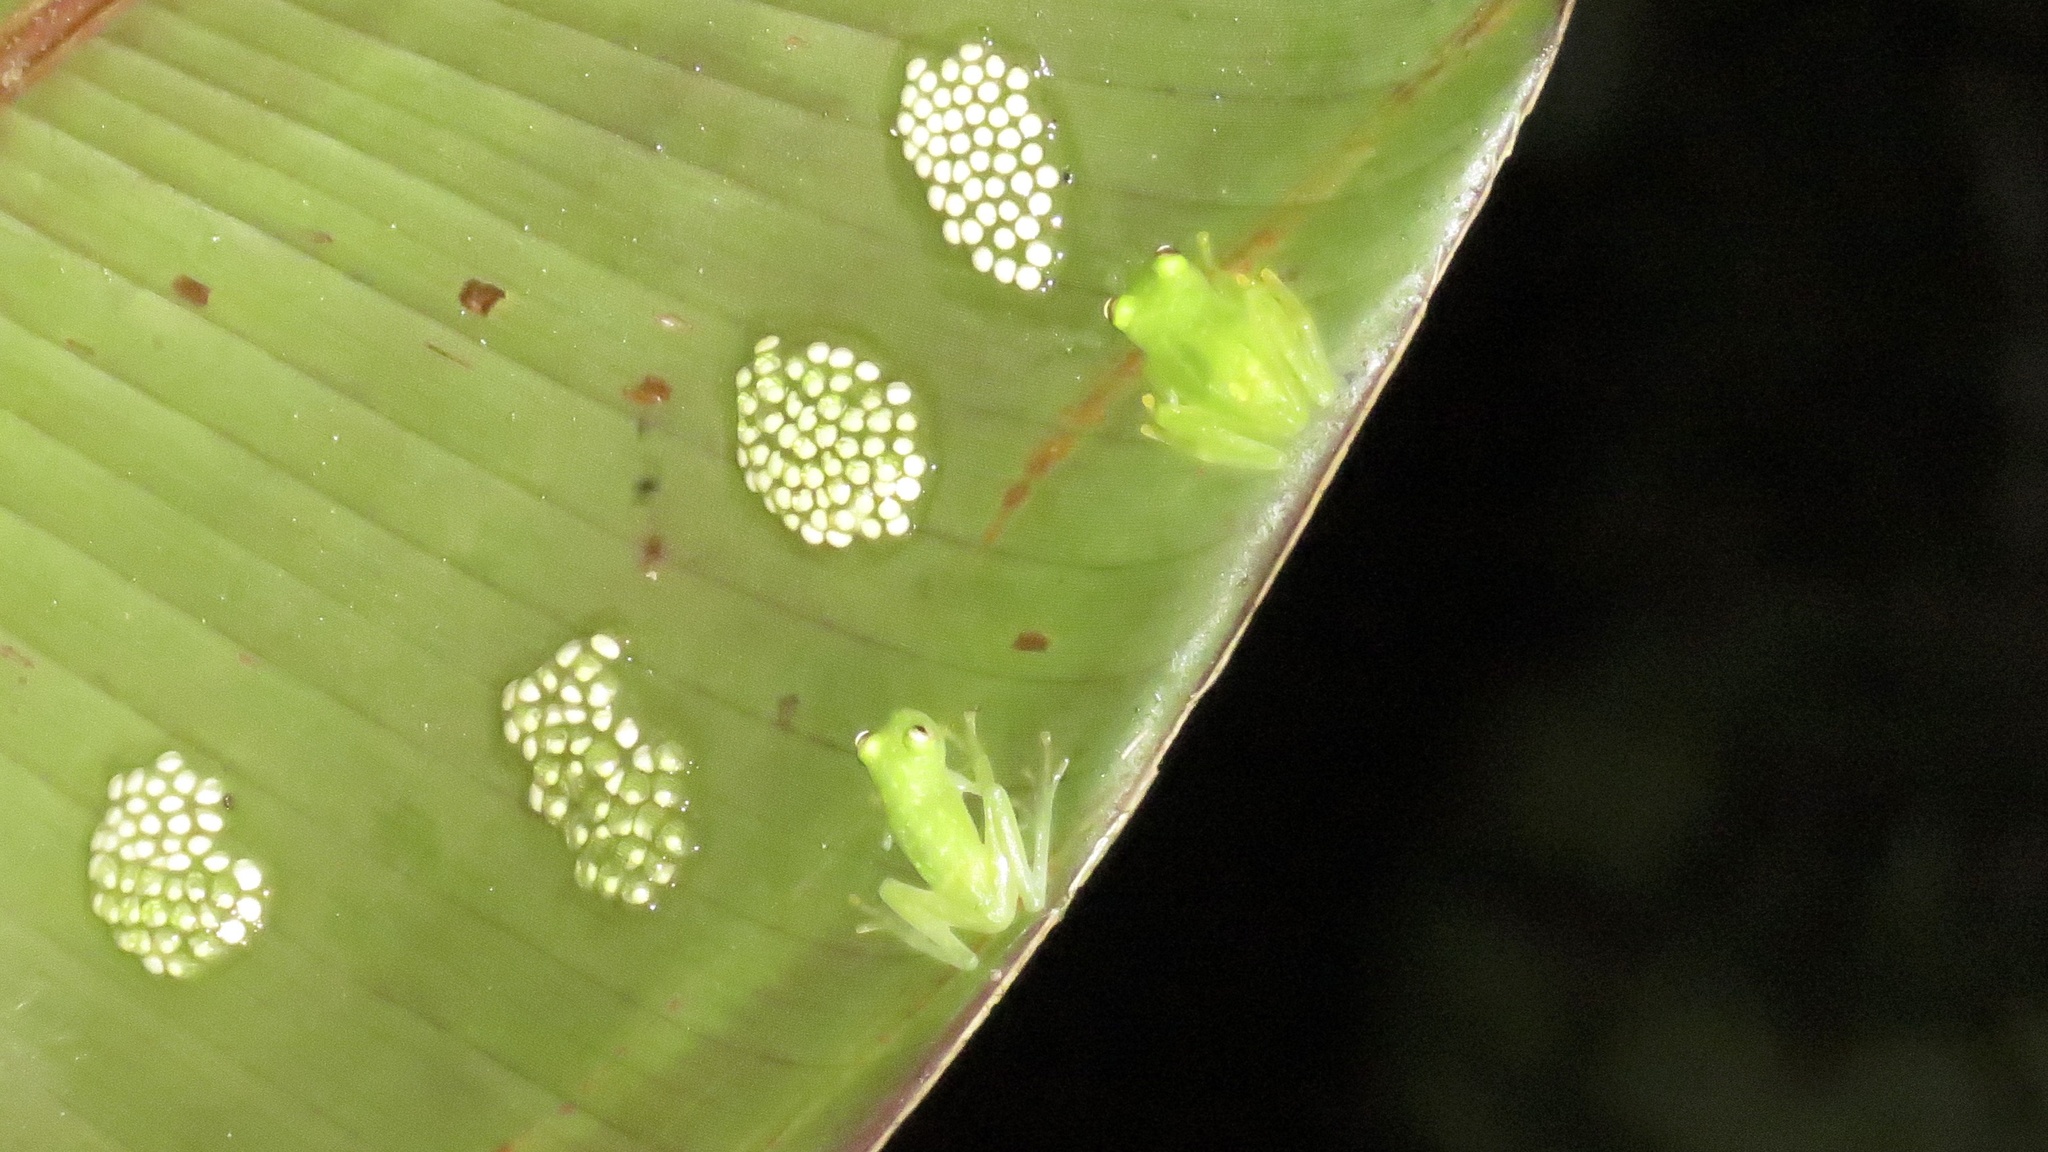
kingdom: Animalia
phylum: Chordata
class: Amphibia
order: Anura
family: Centrolenidae
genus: Hyalinobatrachium
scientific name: Hyalinobatrachium colymbiphyllum
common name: Plantation glass frog
